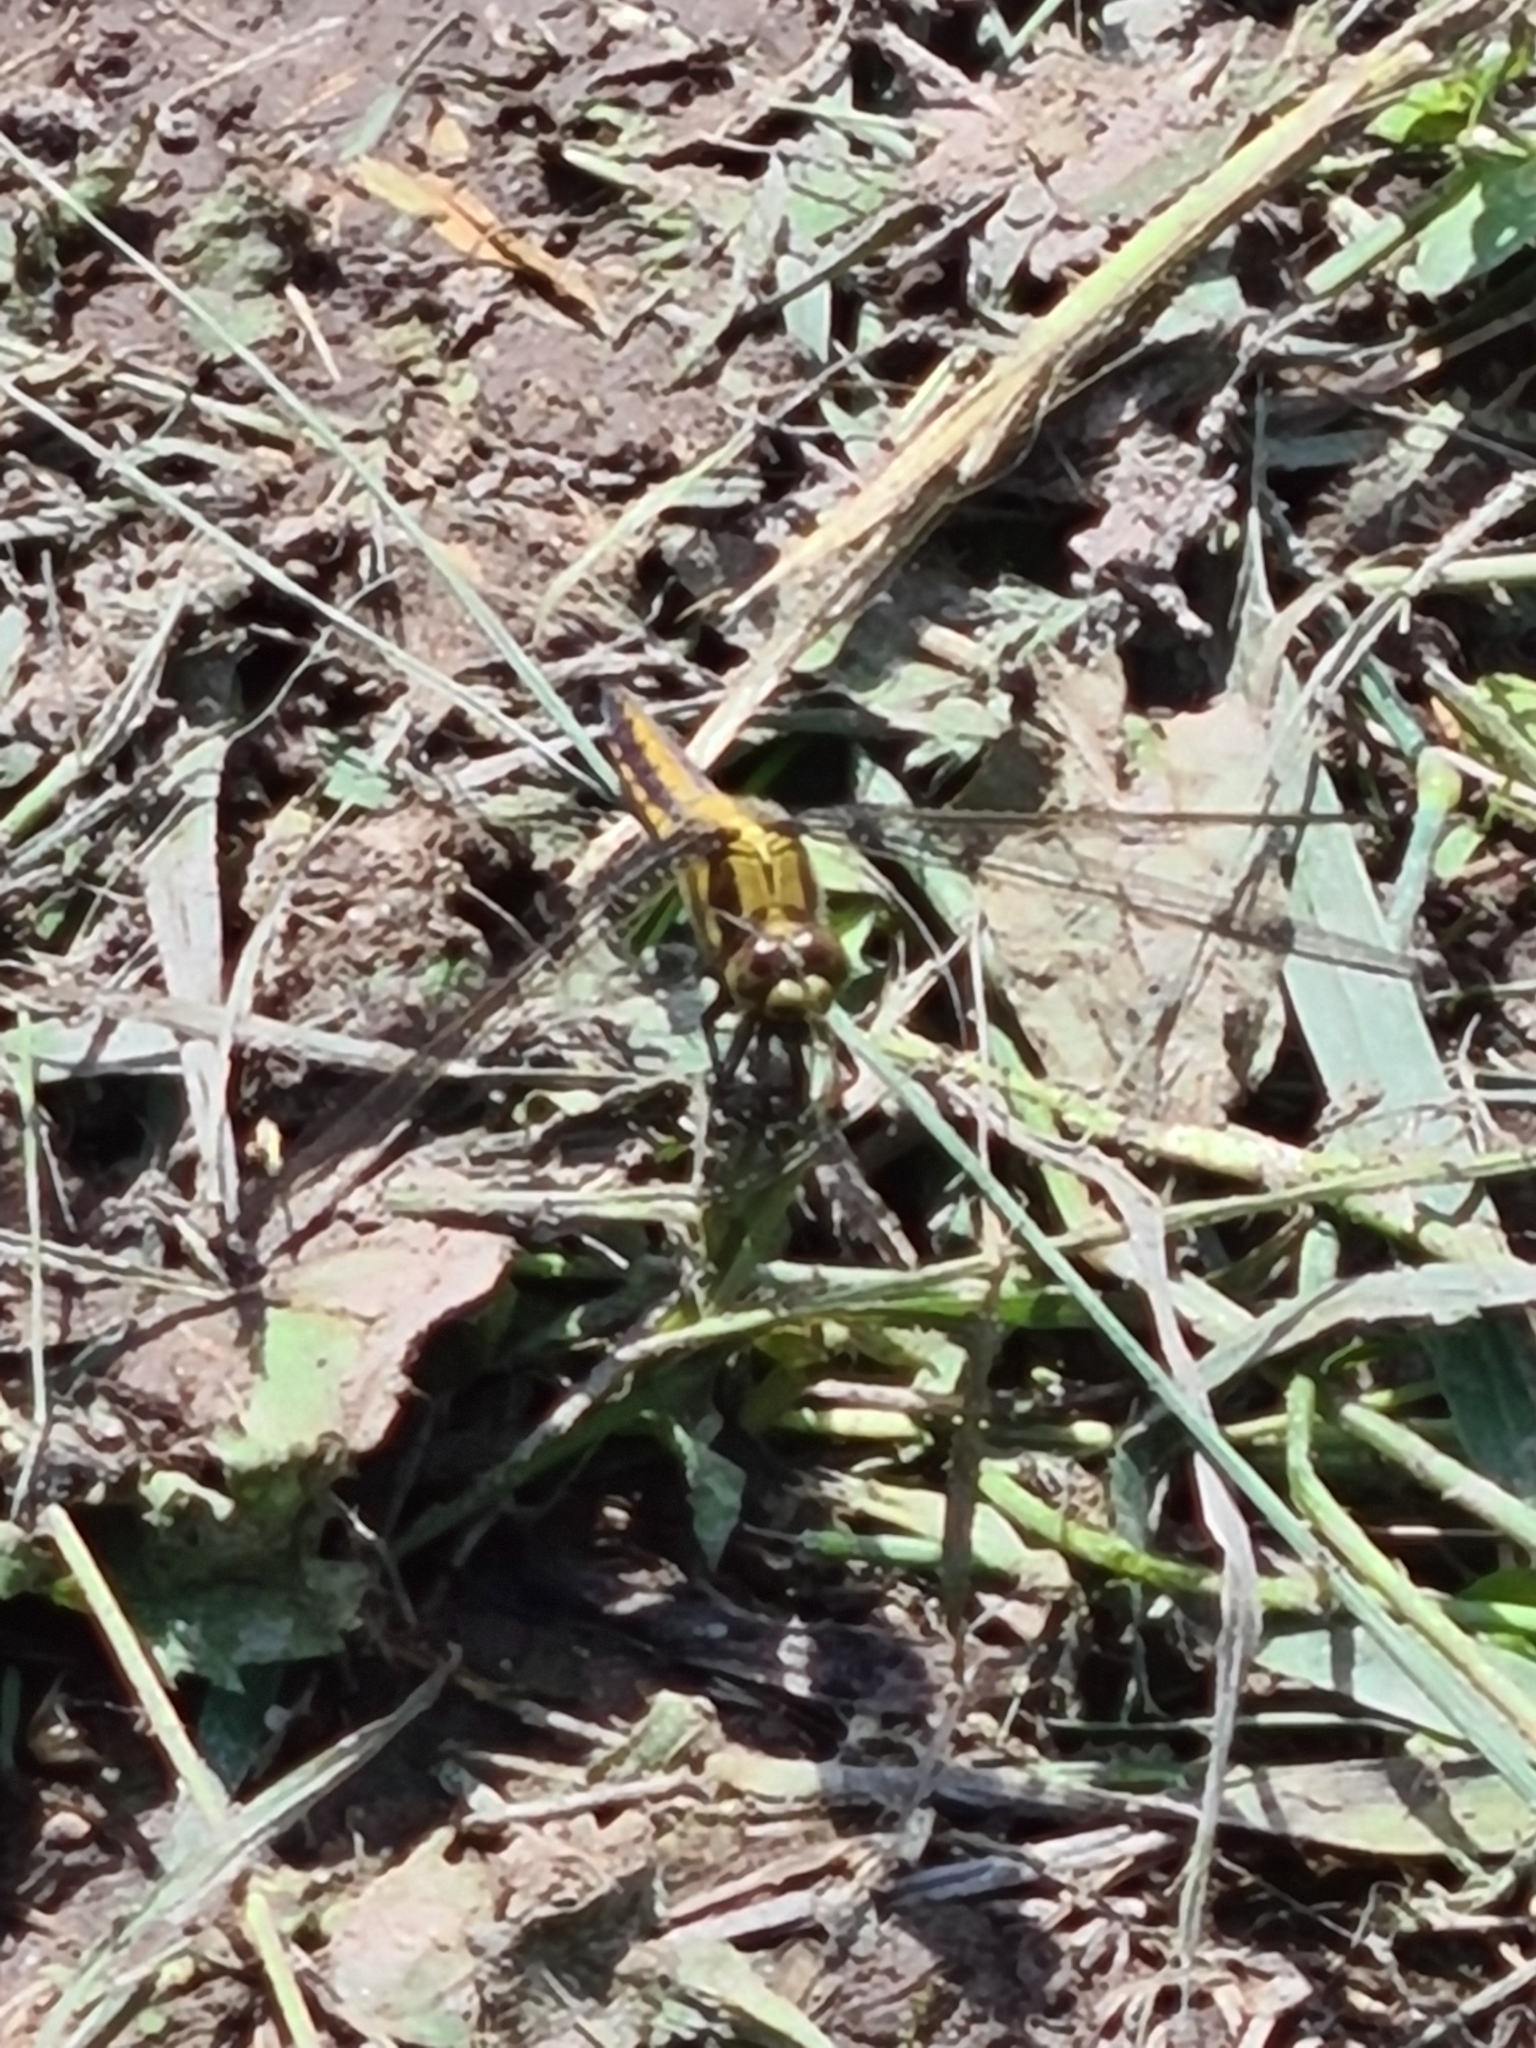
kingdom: Animalia
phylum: Arthropoda
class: Insecta
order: Odonata
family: Libellulidae
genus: Orthetrum
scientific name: Orthetrum cancellatum
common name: Black-tailed skimmer
